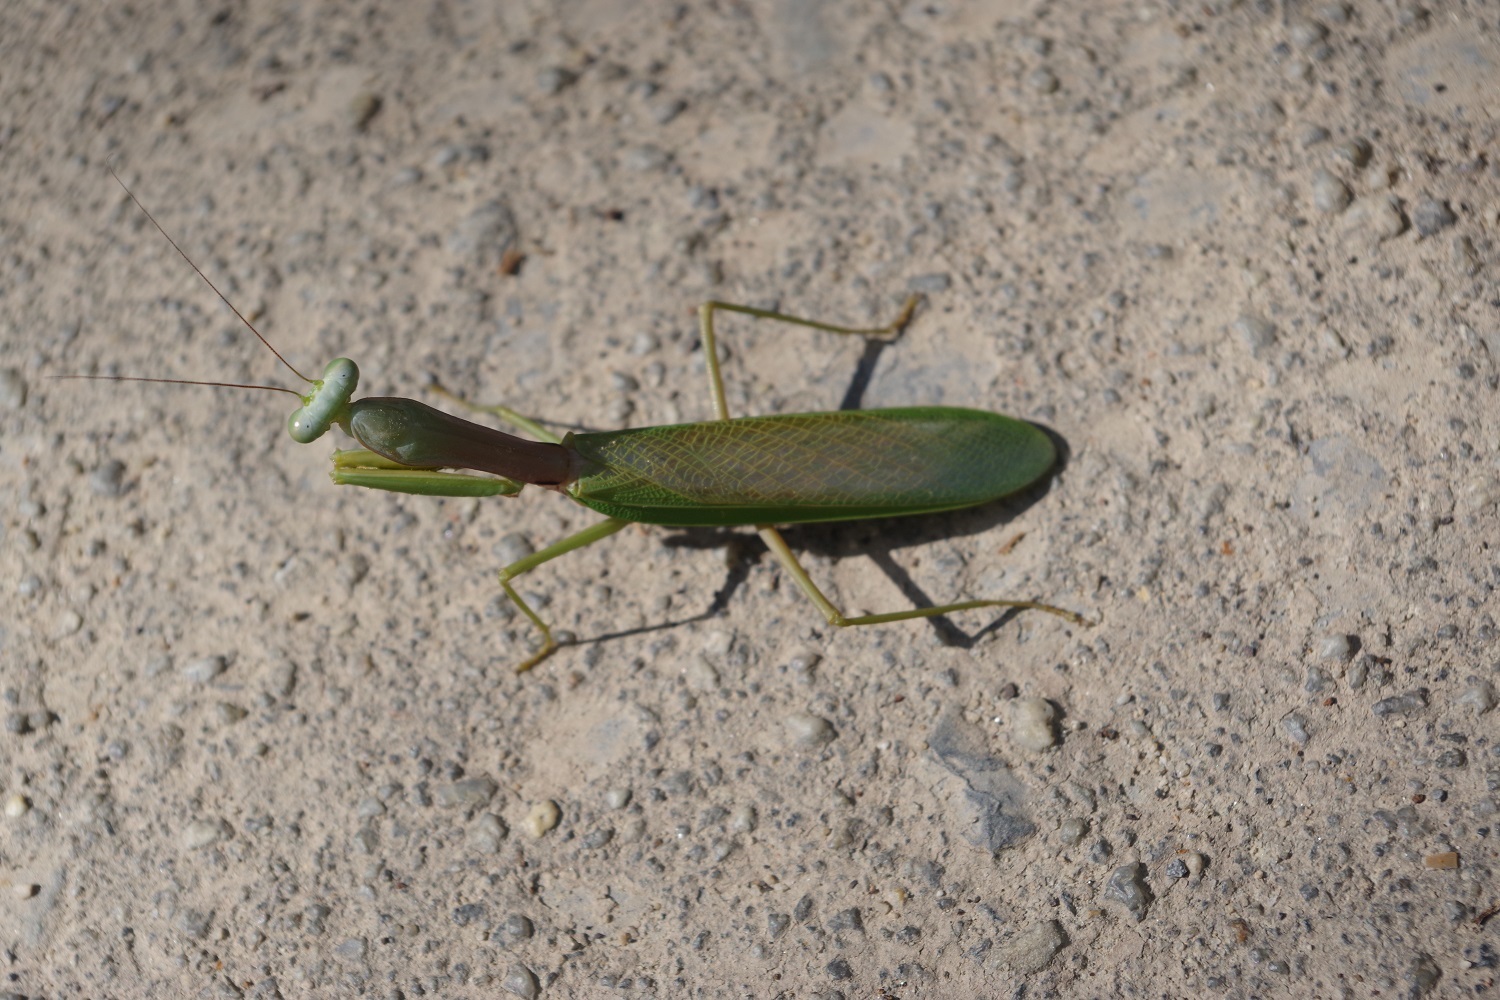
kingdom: Animalia
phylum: Arthropoda
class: Insecta
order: Mantodea
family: Mantidae
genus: Hierodula
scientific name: Hierodula venosa
